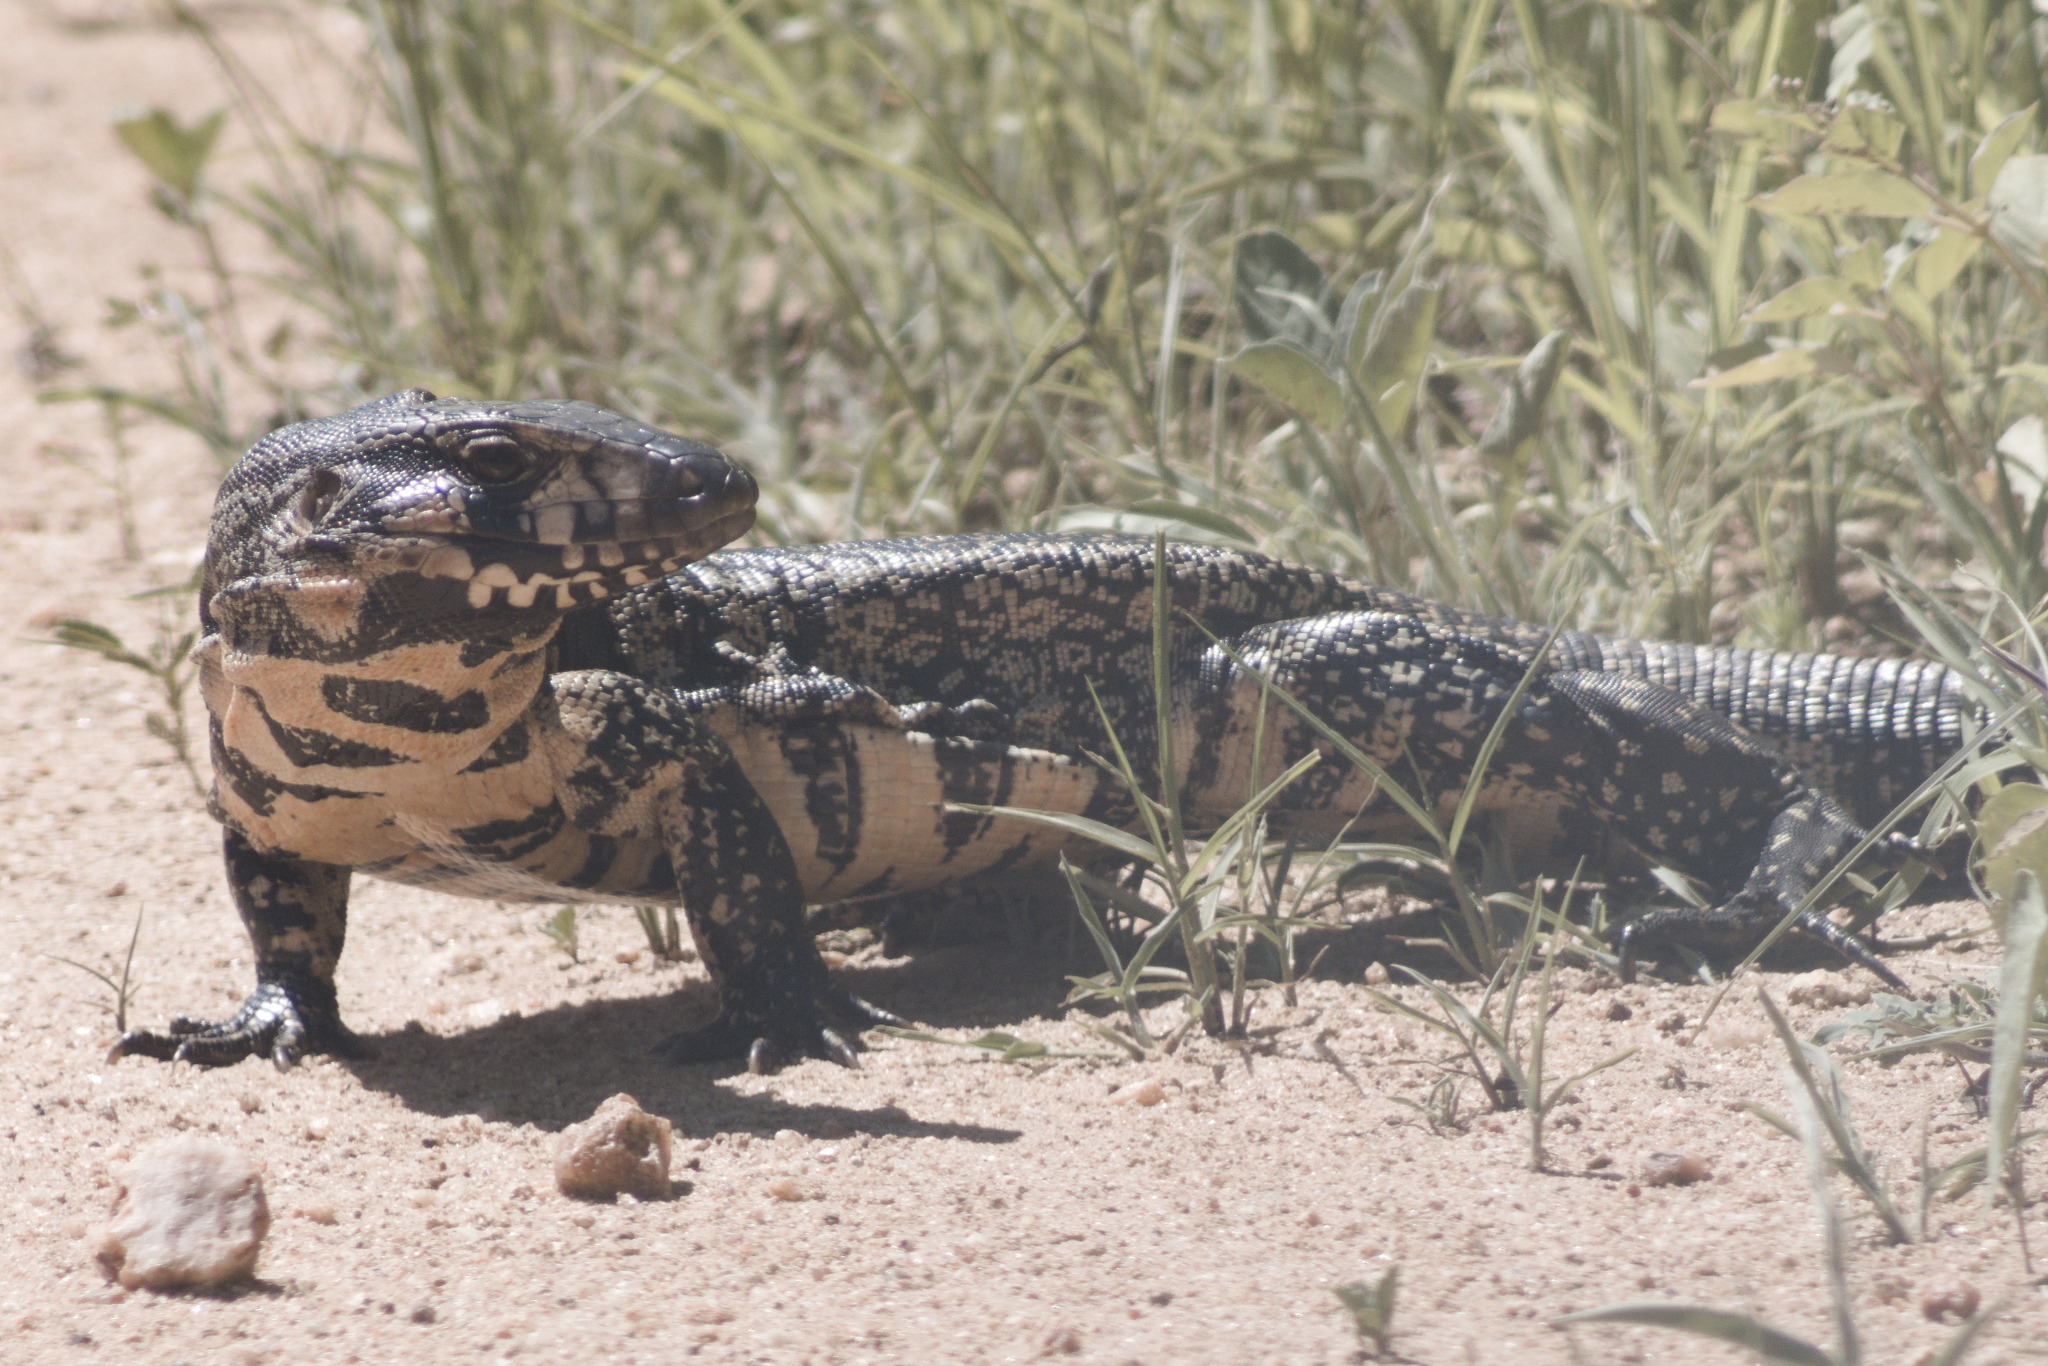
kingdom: Animalia
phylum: Chordata
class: Squamata
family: Teiidae
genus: Salvator
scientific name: Salvator merianae
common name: Argentine black and white tegu
